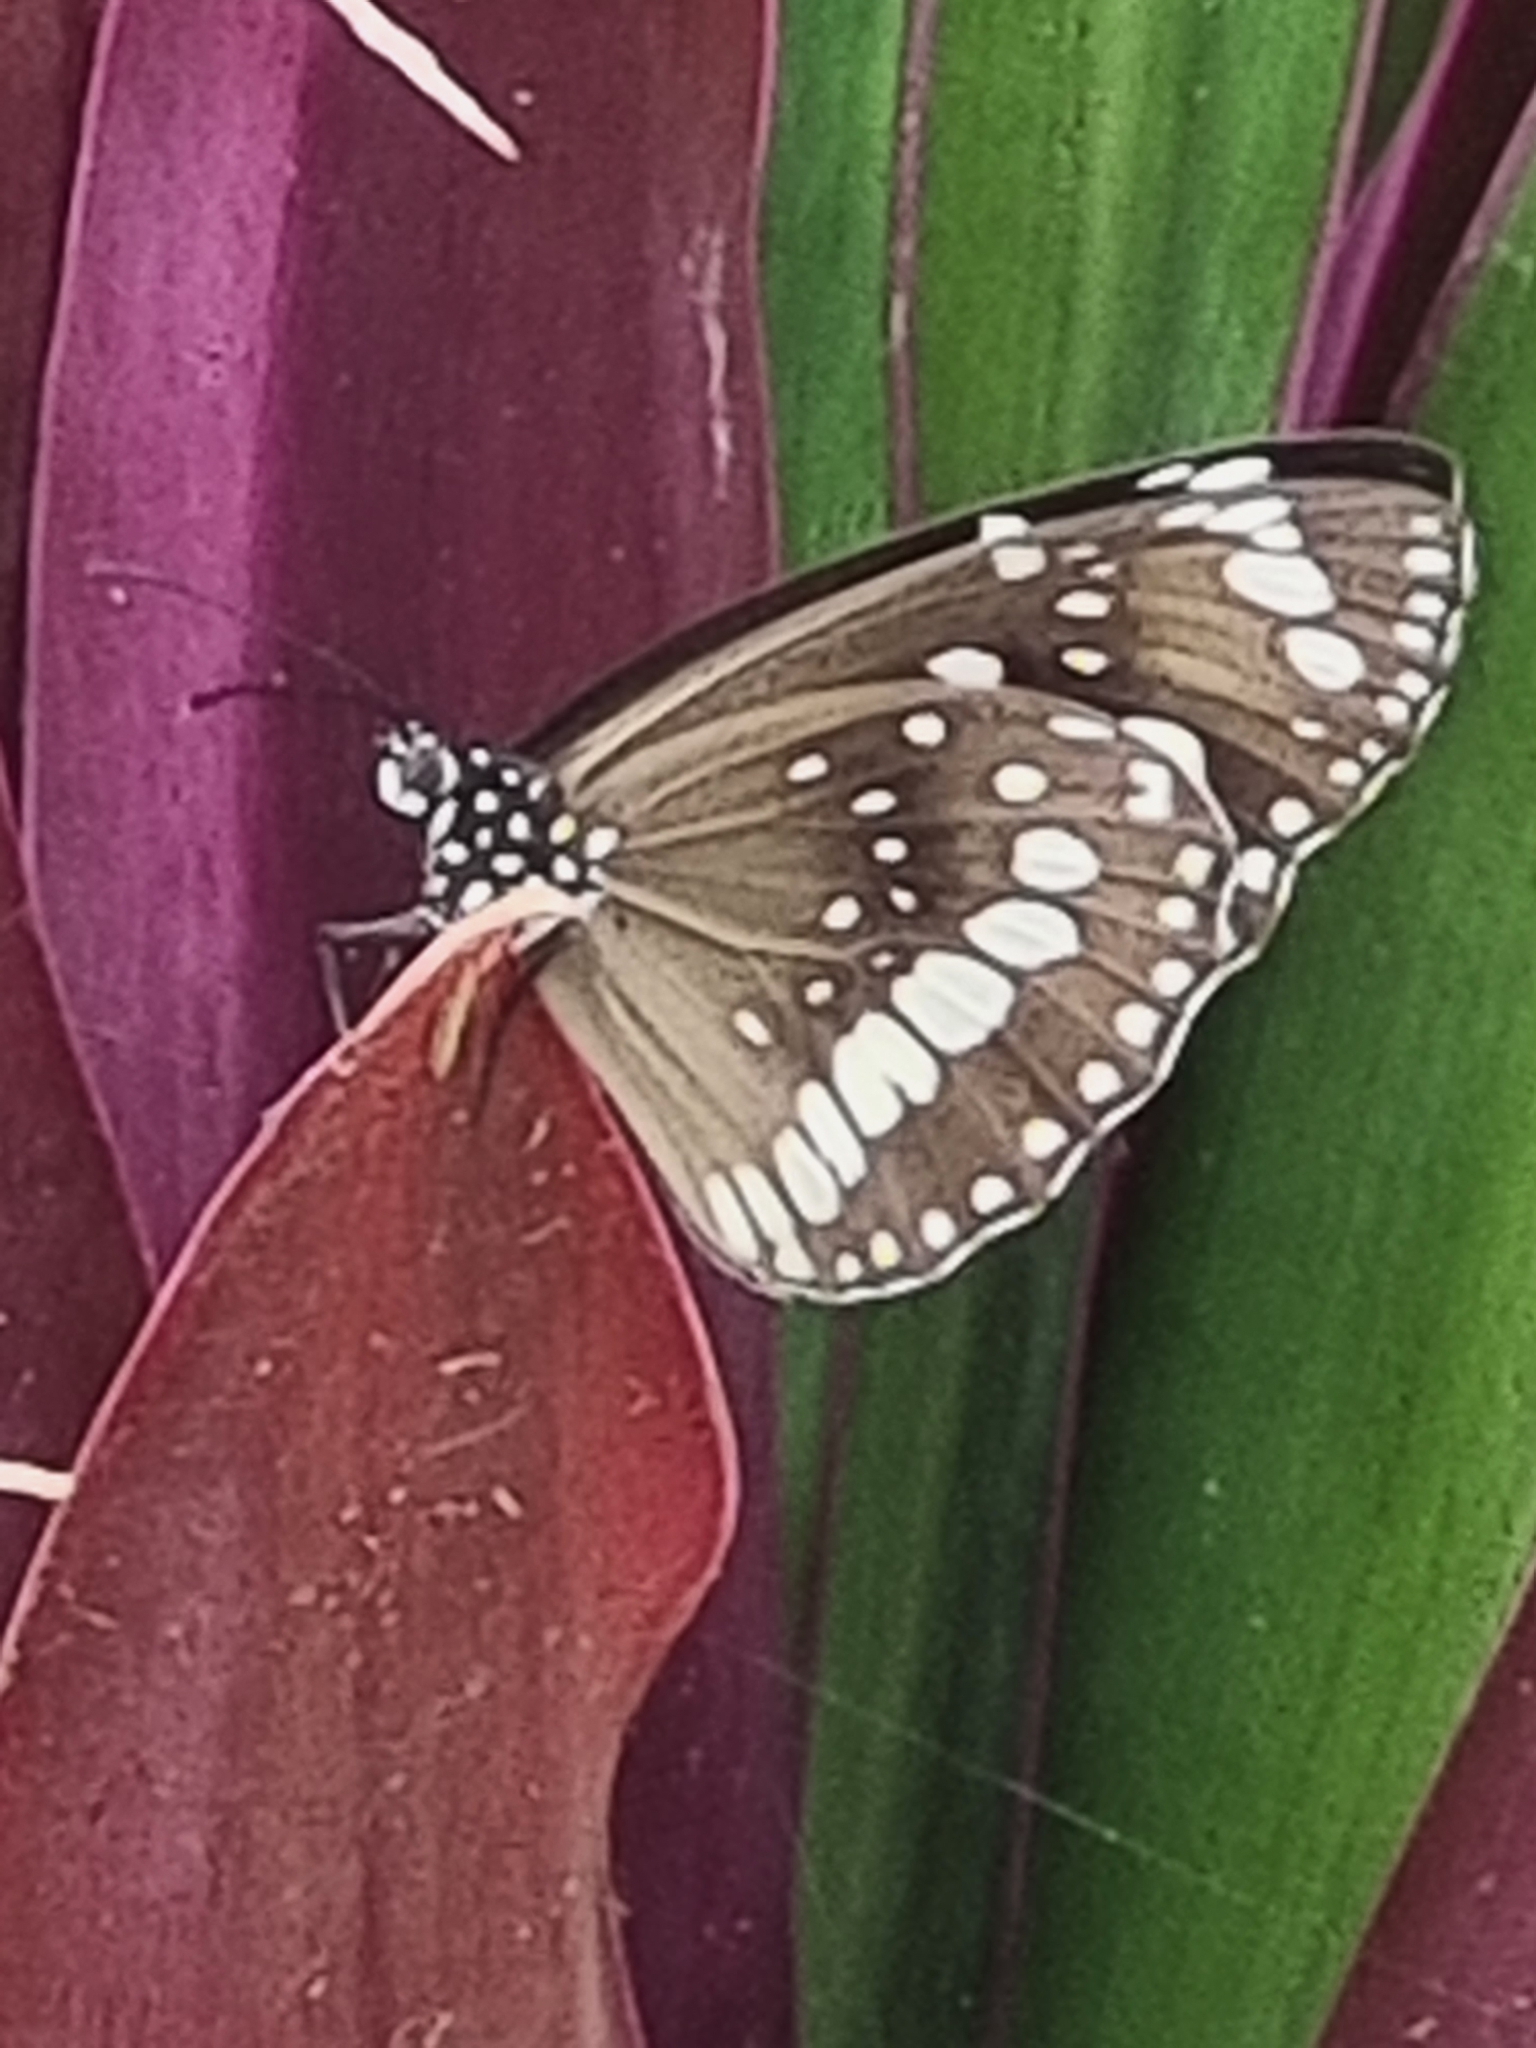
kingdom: Animalia
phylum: Arthropoda
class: Insecta
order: Lepidoptera
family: Nymphalidae
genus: Euploea
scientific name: Euploea core
